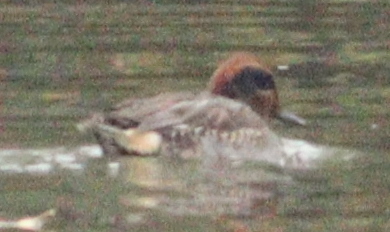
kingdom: Animalia
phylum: Chordata
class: Aves
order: Anseriformes
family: Anatidae
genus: Anas
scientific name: Anas crecca
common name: Eurasian teal
